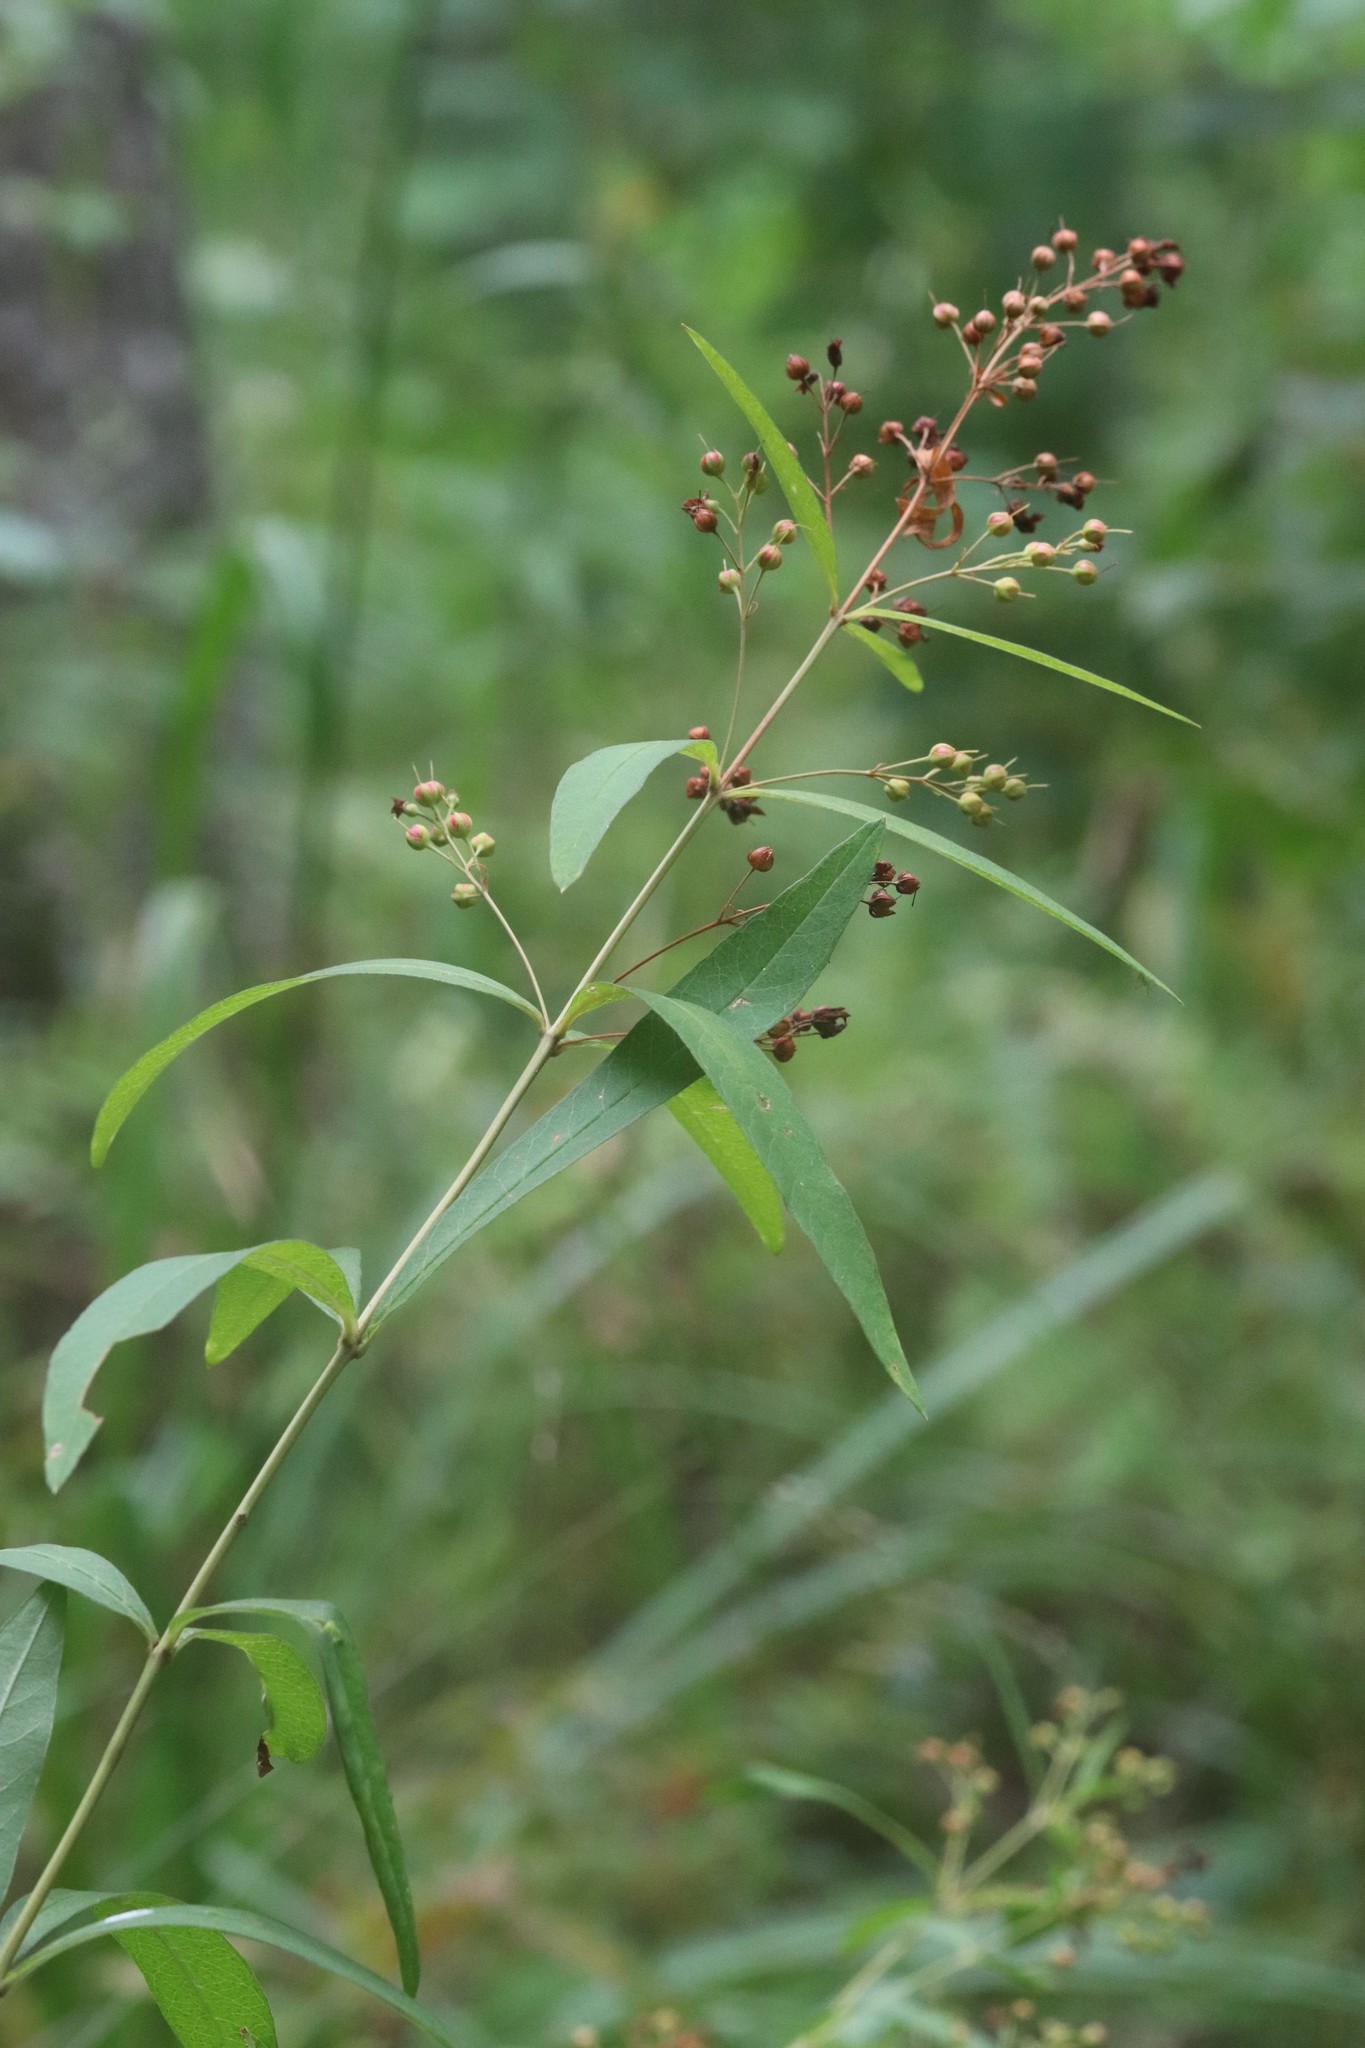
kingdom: Plantae
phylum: Tracheophyta
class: Magnoliopsida
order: Ericales
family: Primulaceae
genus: Lysimachia
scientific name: Lysimachia davurica
